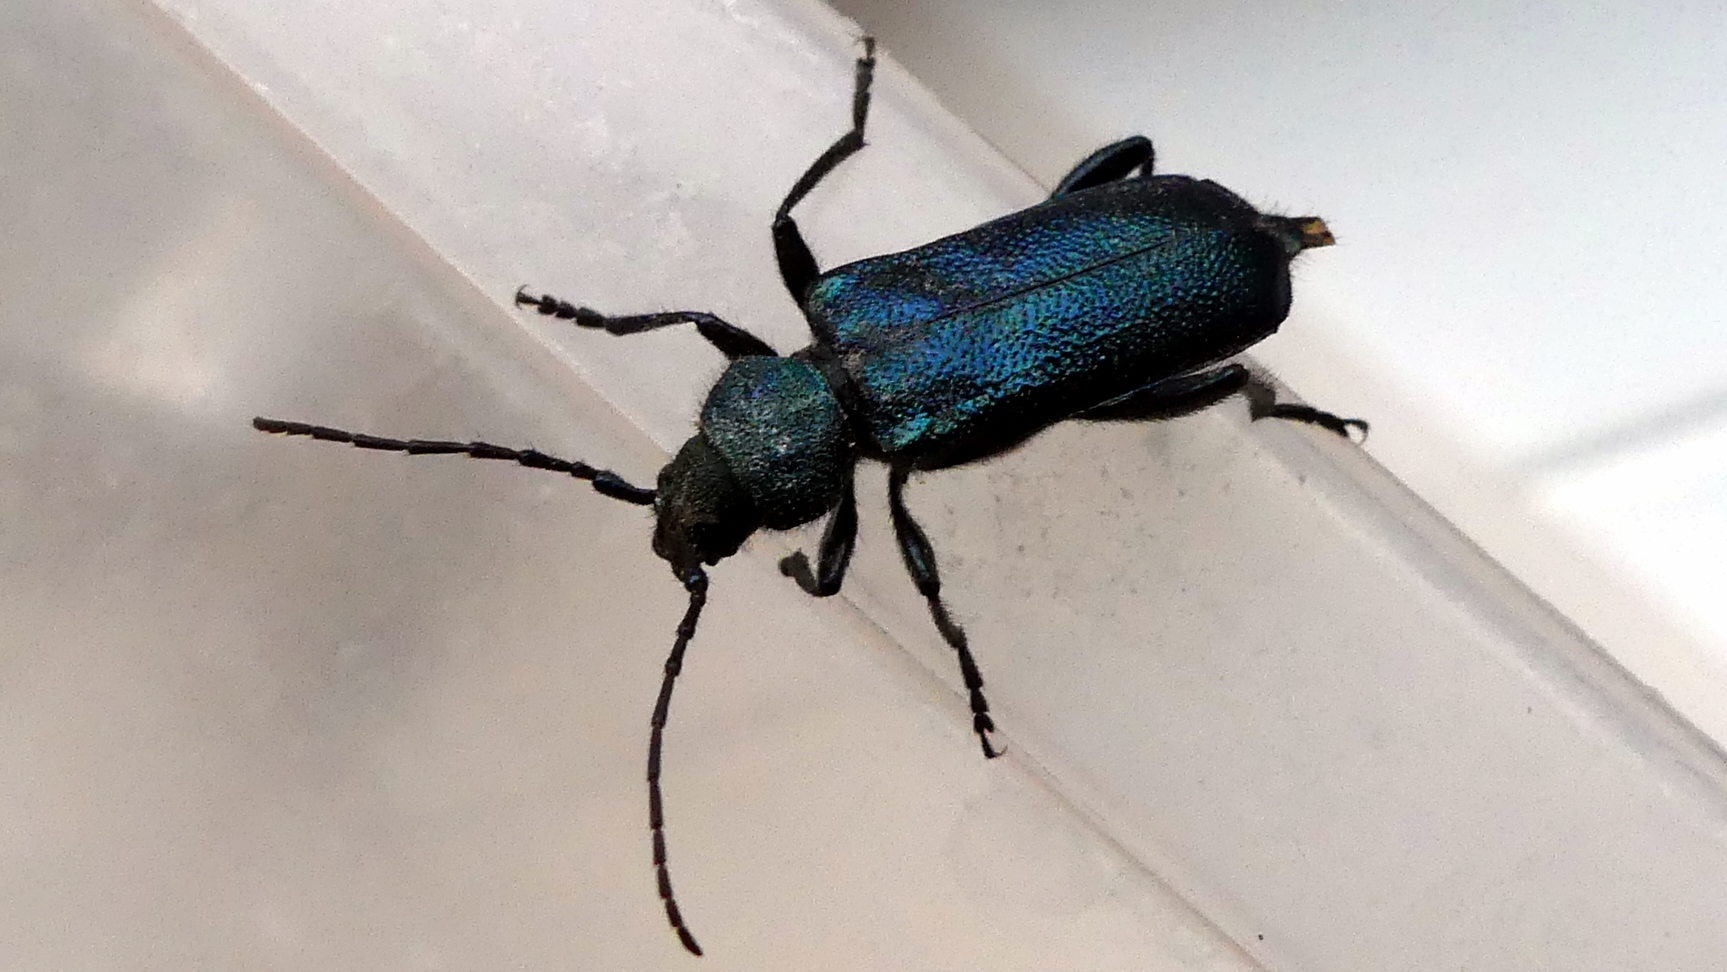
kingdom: Animalia
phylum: Arthropoda
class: Insecta
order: Coleoptera
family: Cerambycidae
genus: Callidium
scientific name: Callidium violaceum
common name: Violet tanbark beetle
